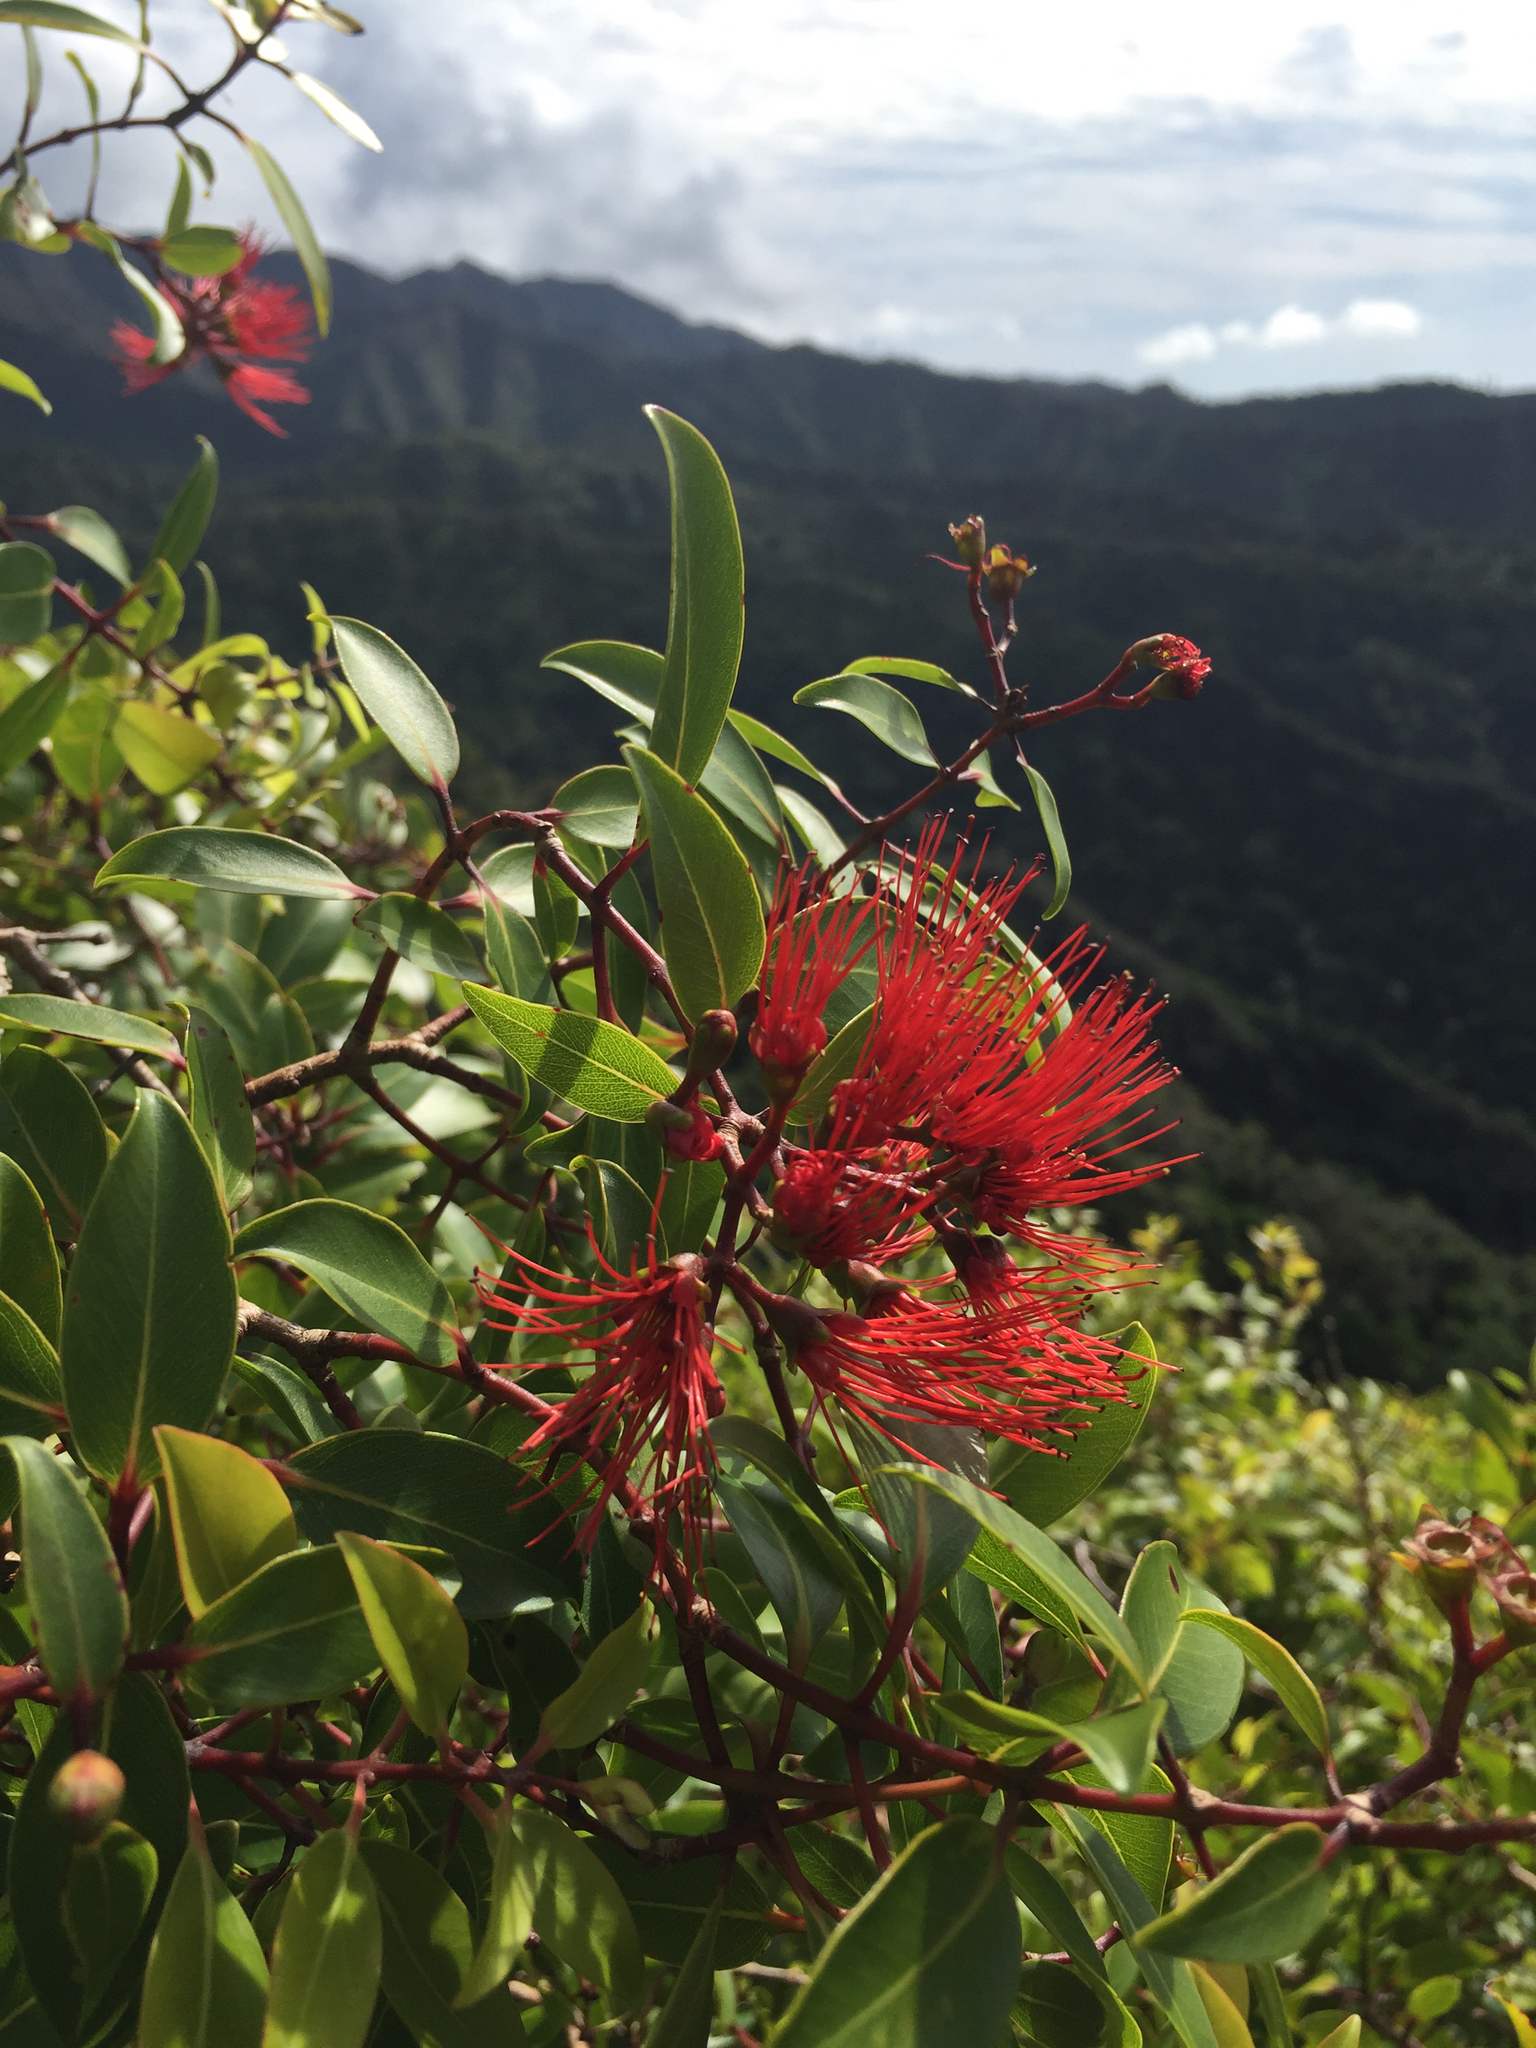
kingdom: Plantae
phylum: Tracheophyta
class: Magnoliopsida
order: Myrtales
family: Myrtaceae
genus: Metrosideros
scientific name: Metrosideros tremuloides
